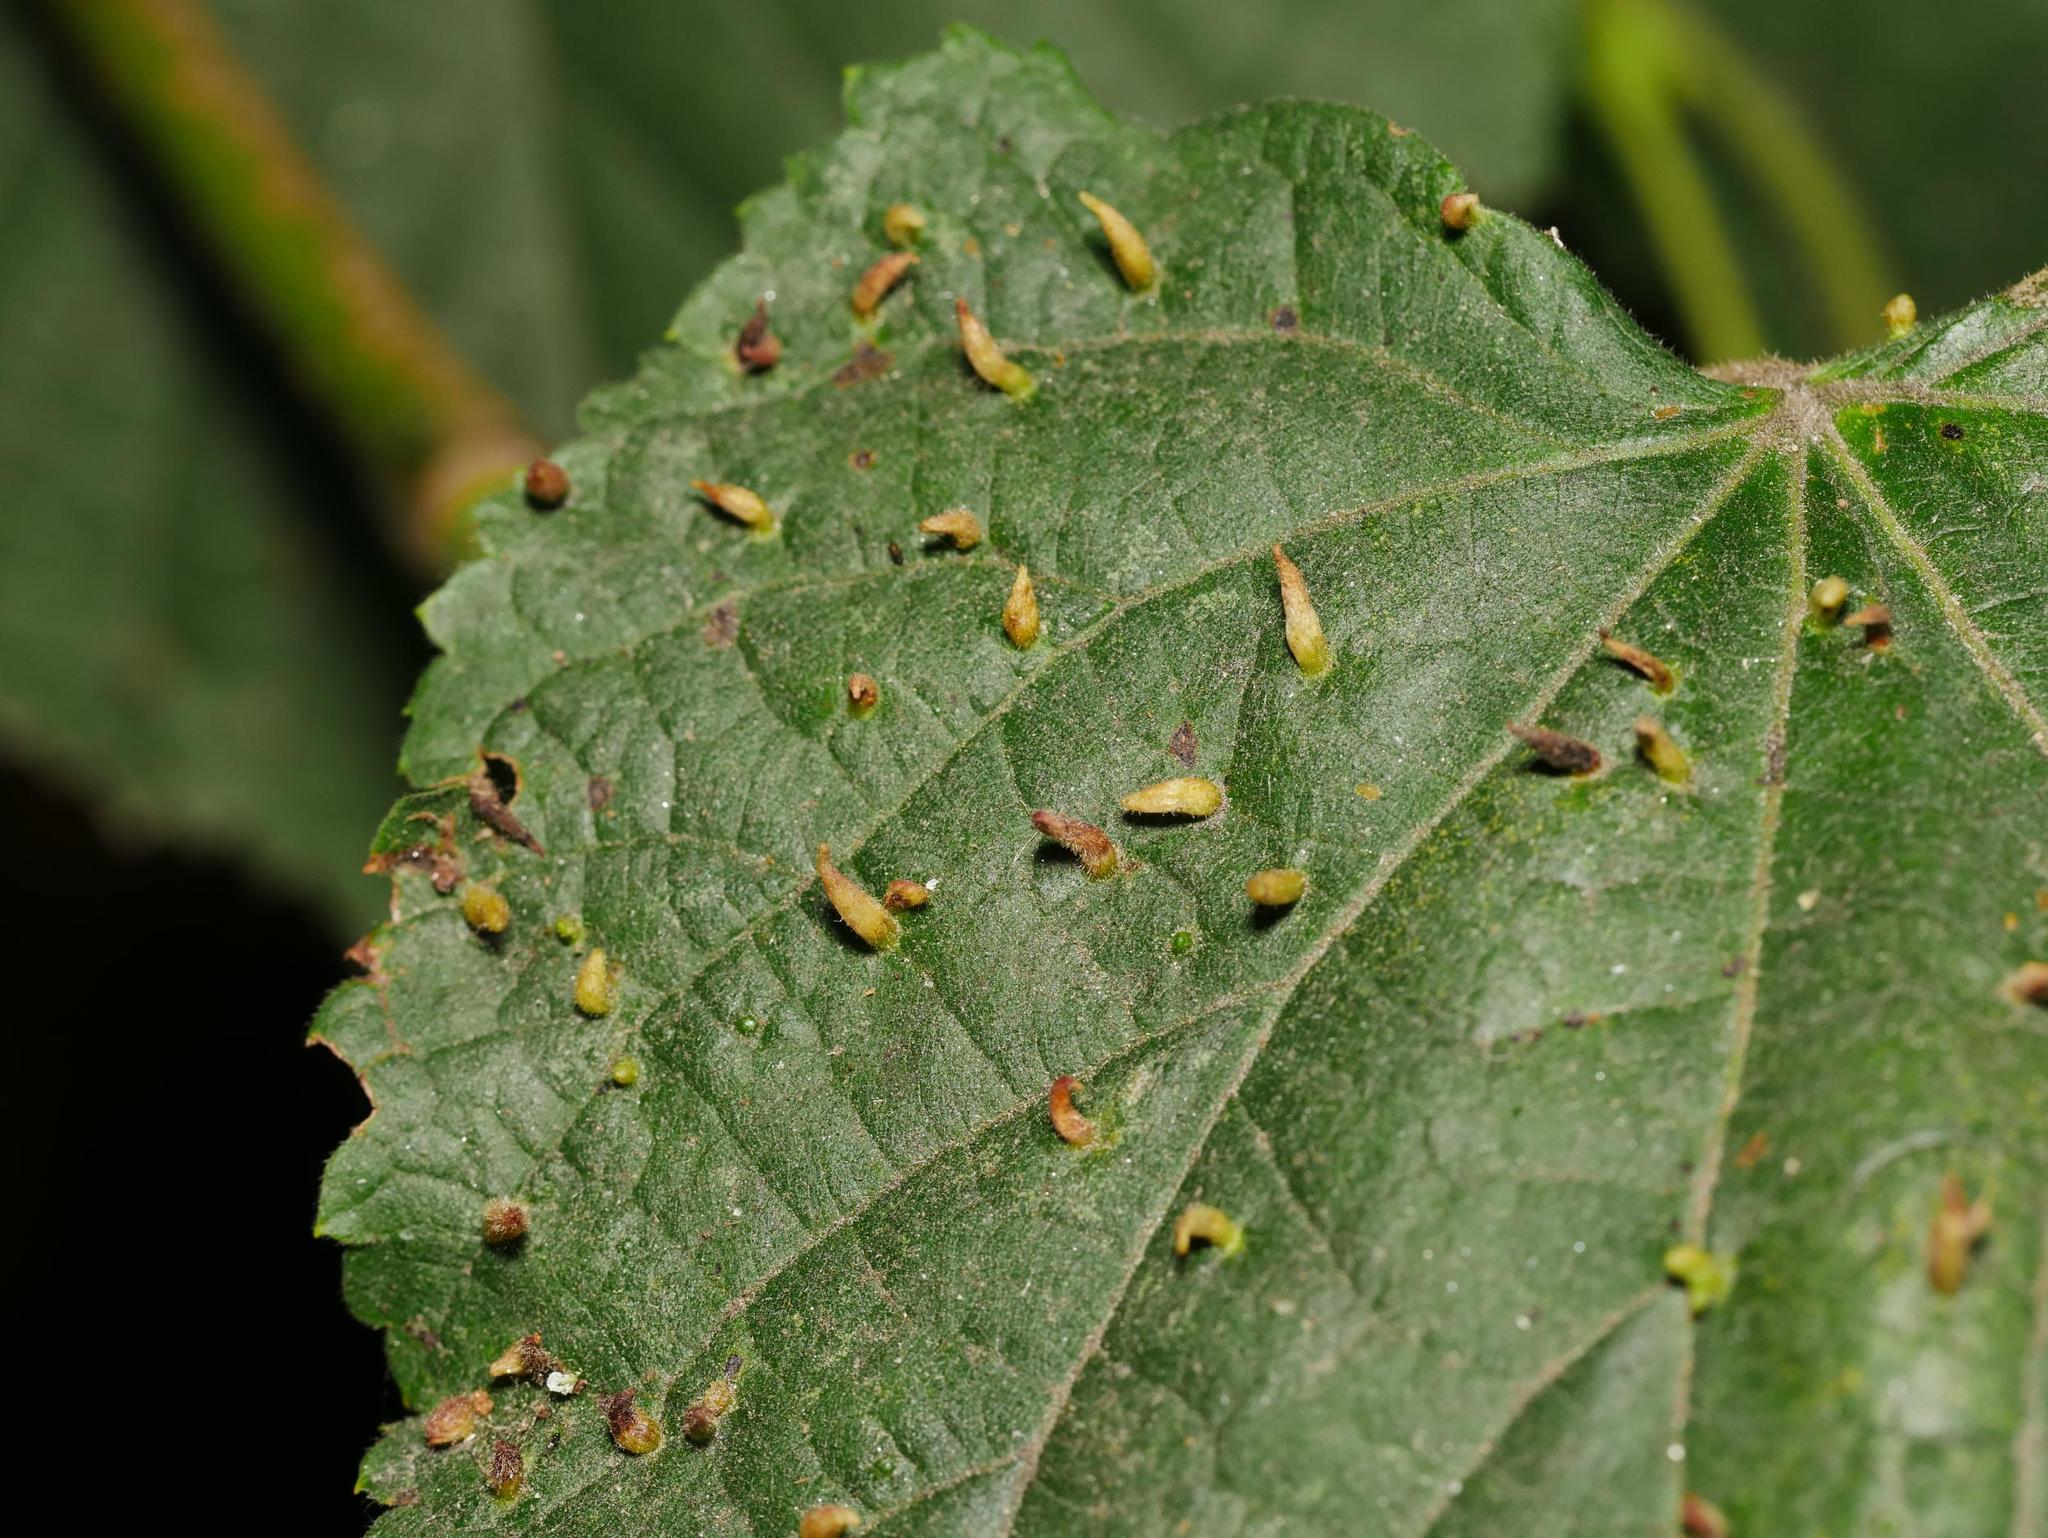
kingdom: Animalia
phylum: Arthropoda
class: Arachnida
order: Trombidiformes
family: Eriophyidae
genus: Eriophyes
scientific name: Eriophyes tiliae
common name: Red nail gall mite
